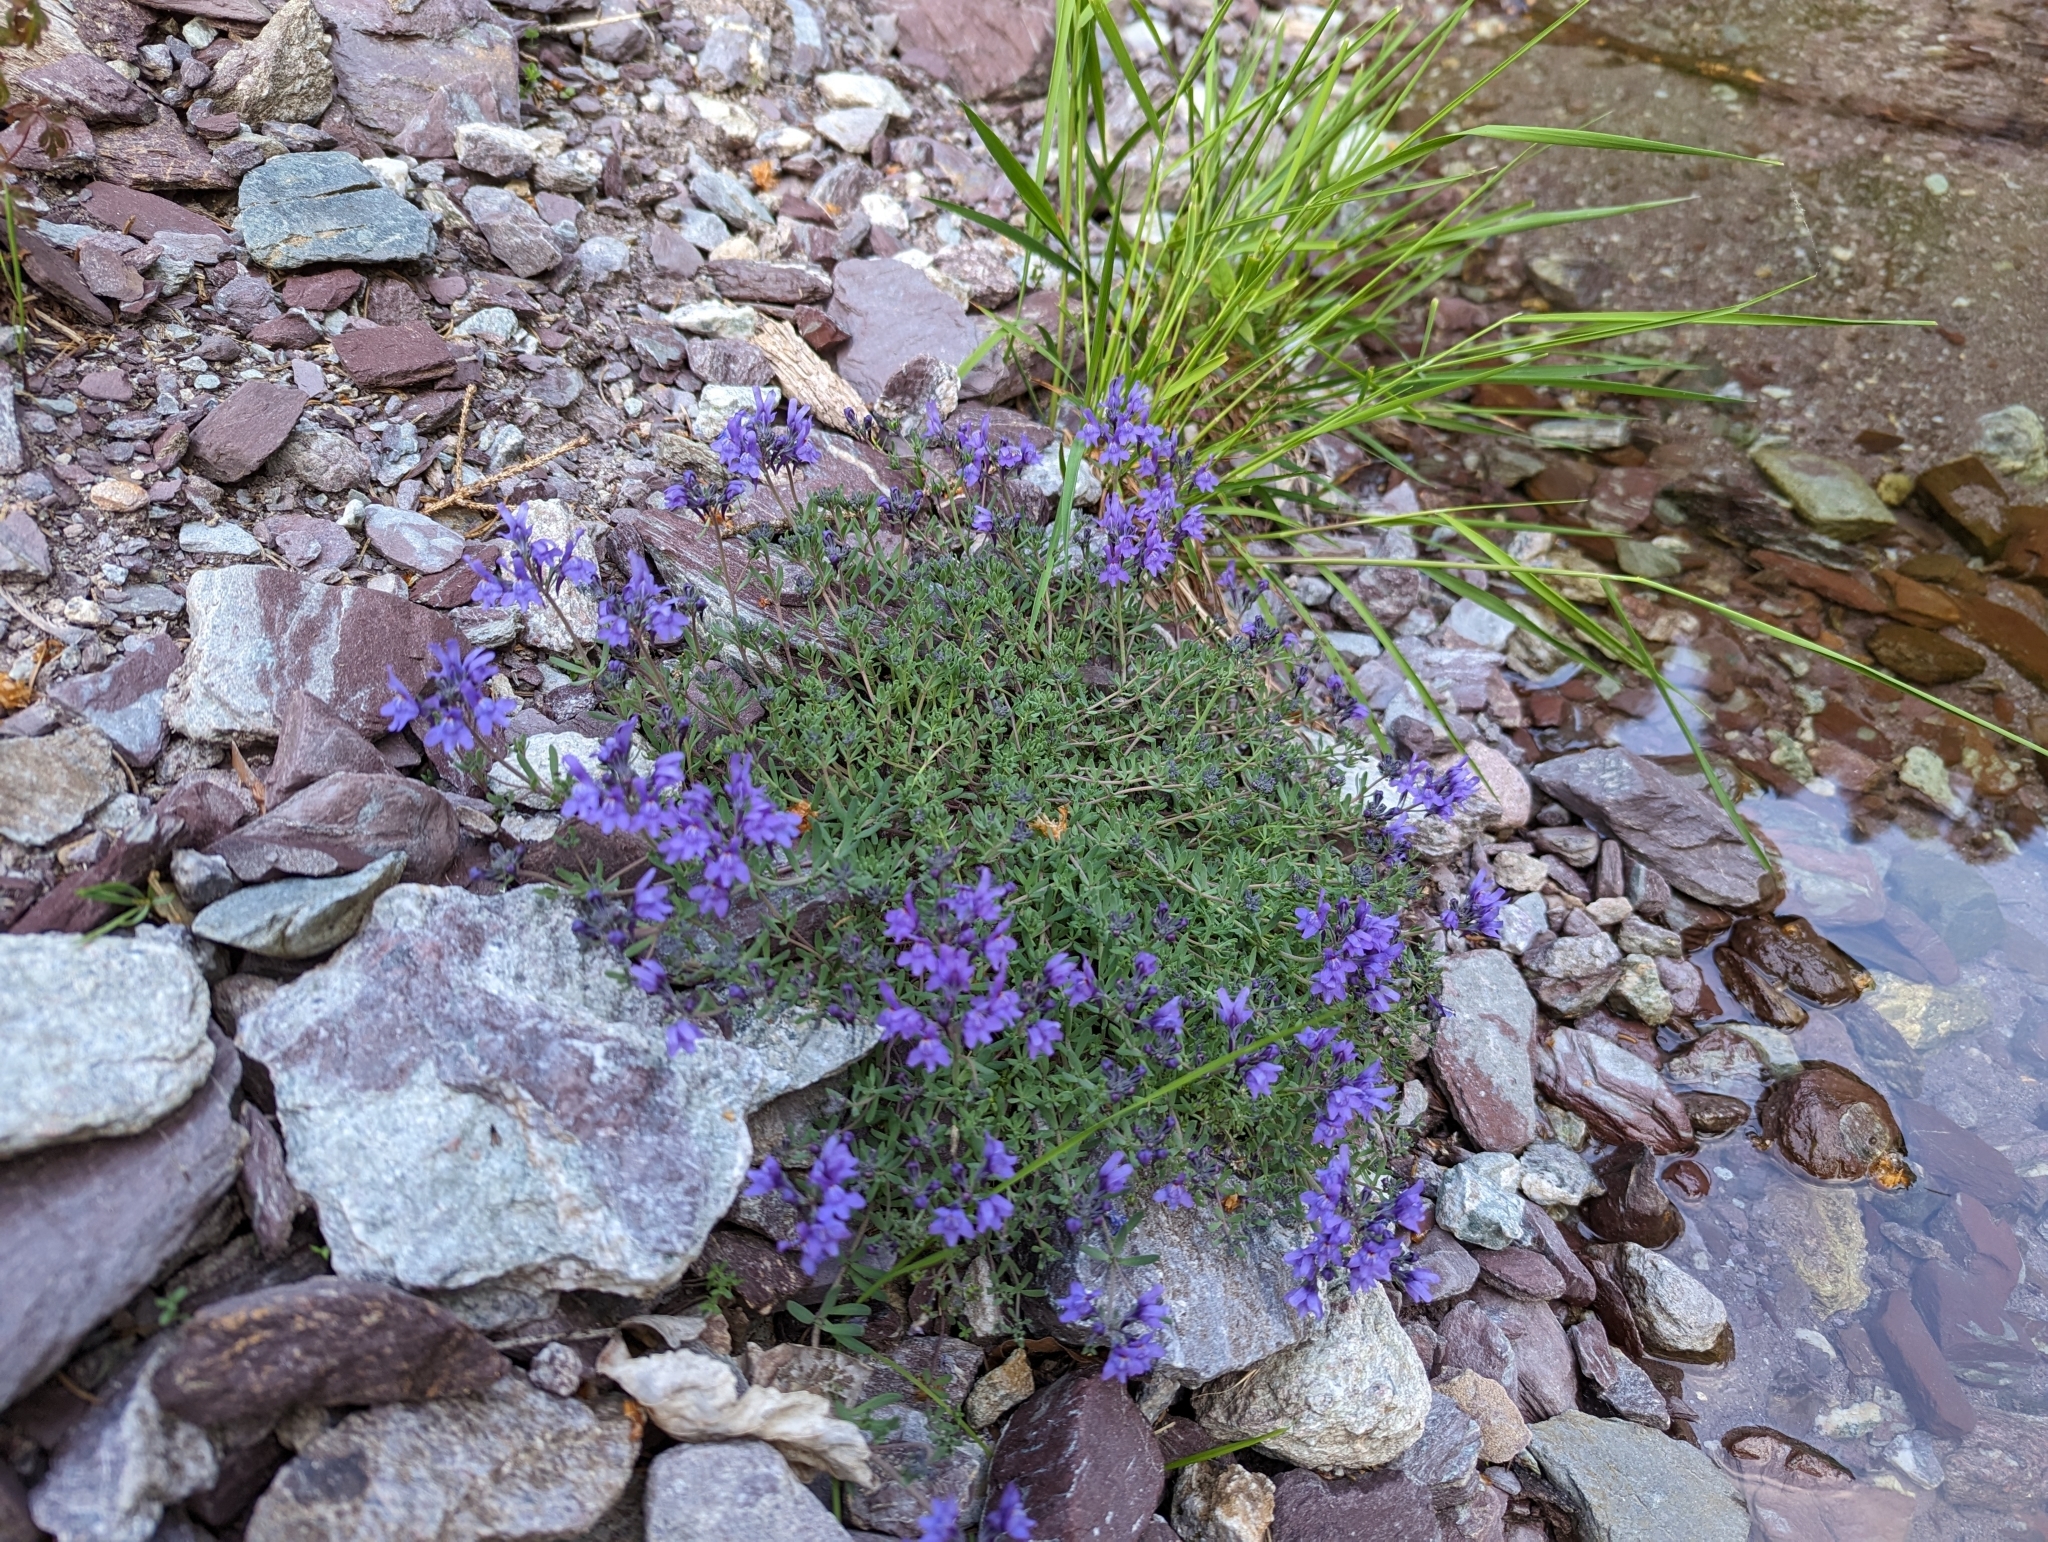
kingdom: Plantae
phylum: Tracheophyta
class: Magnoliopsida
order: Lamiales
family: Plantaginaceae
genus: Linaria
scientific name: Linaria alpina
